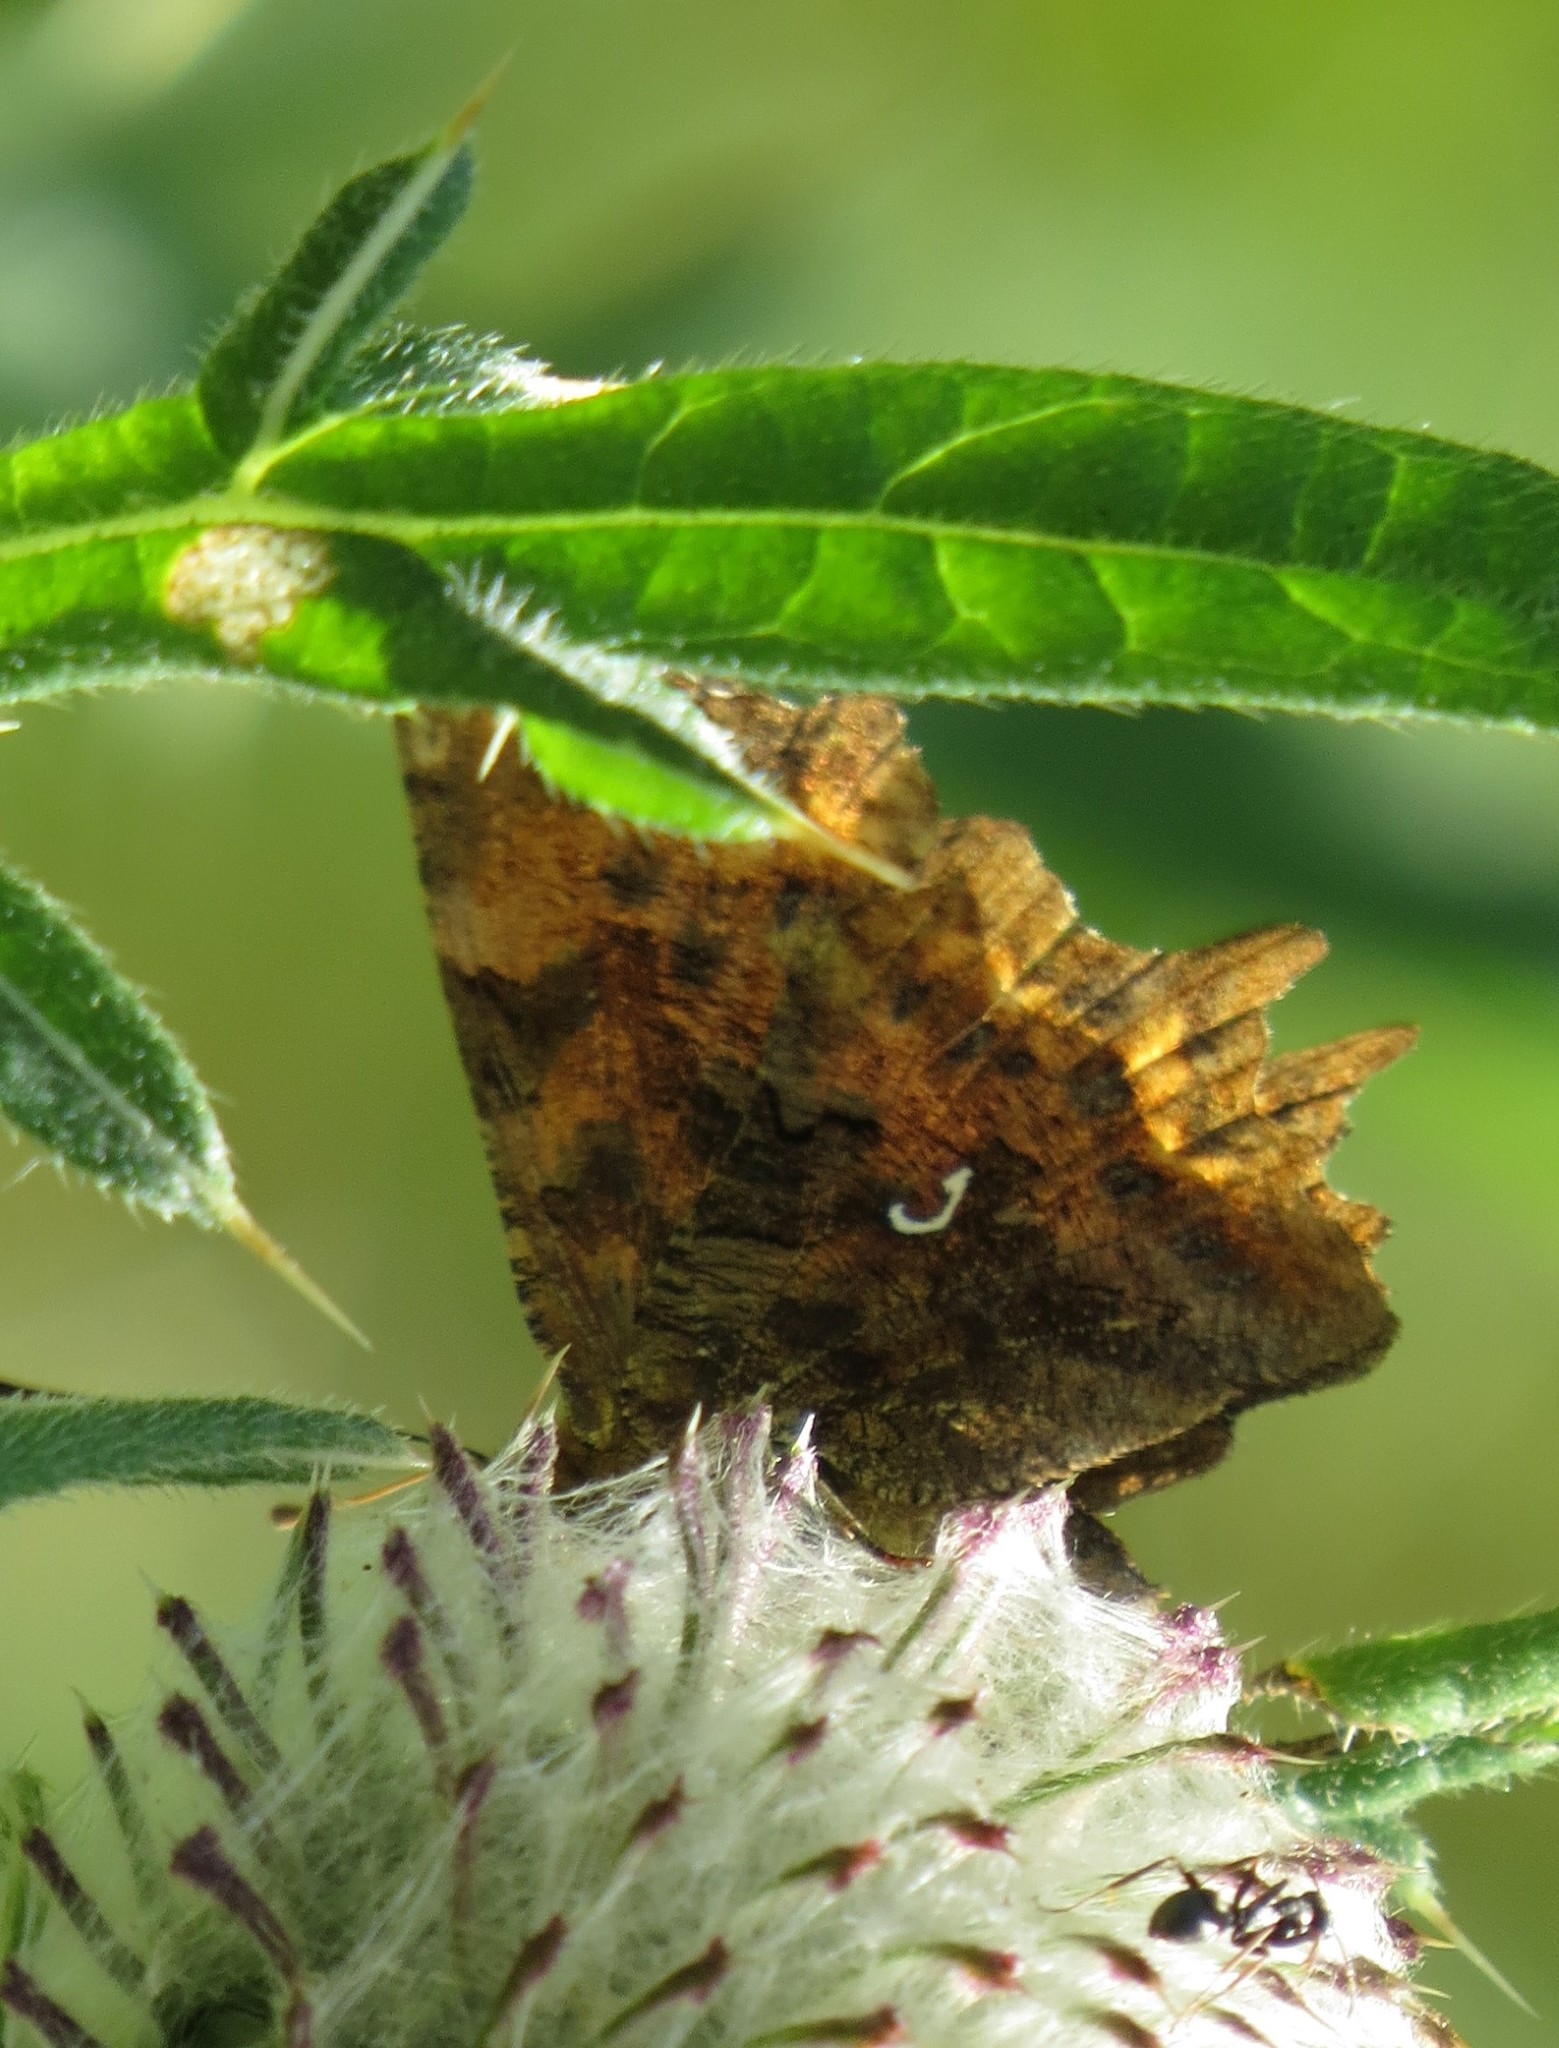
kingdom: Animalia
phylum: Arthropoda
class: Insecta
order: Lepidoptera
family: Nymphalidae
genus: Polygonia
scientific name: Polygonia c-album
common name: Comma
